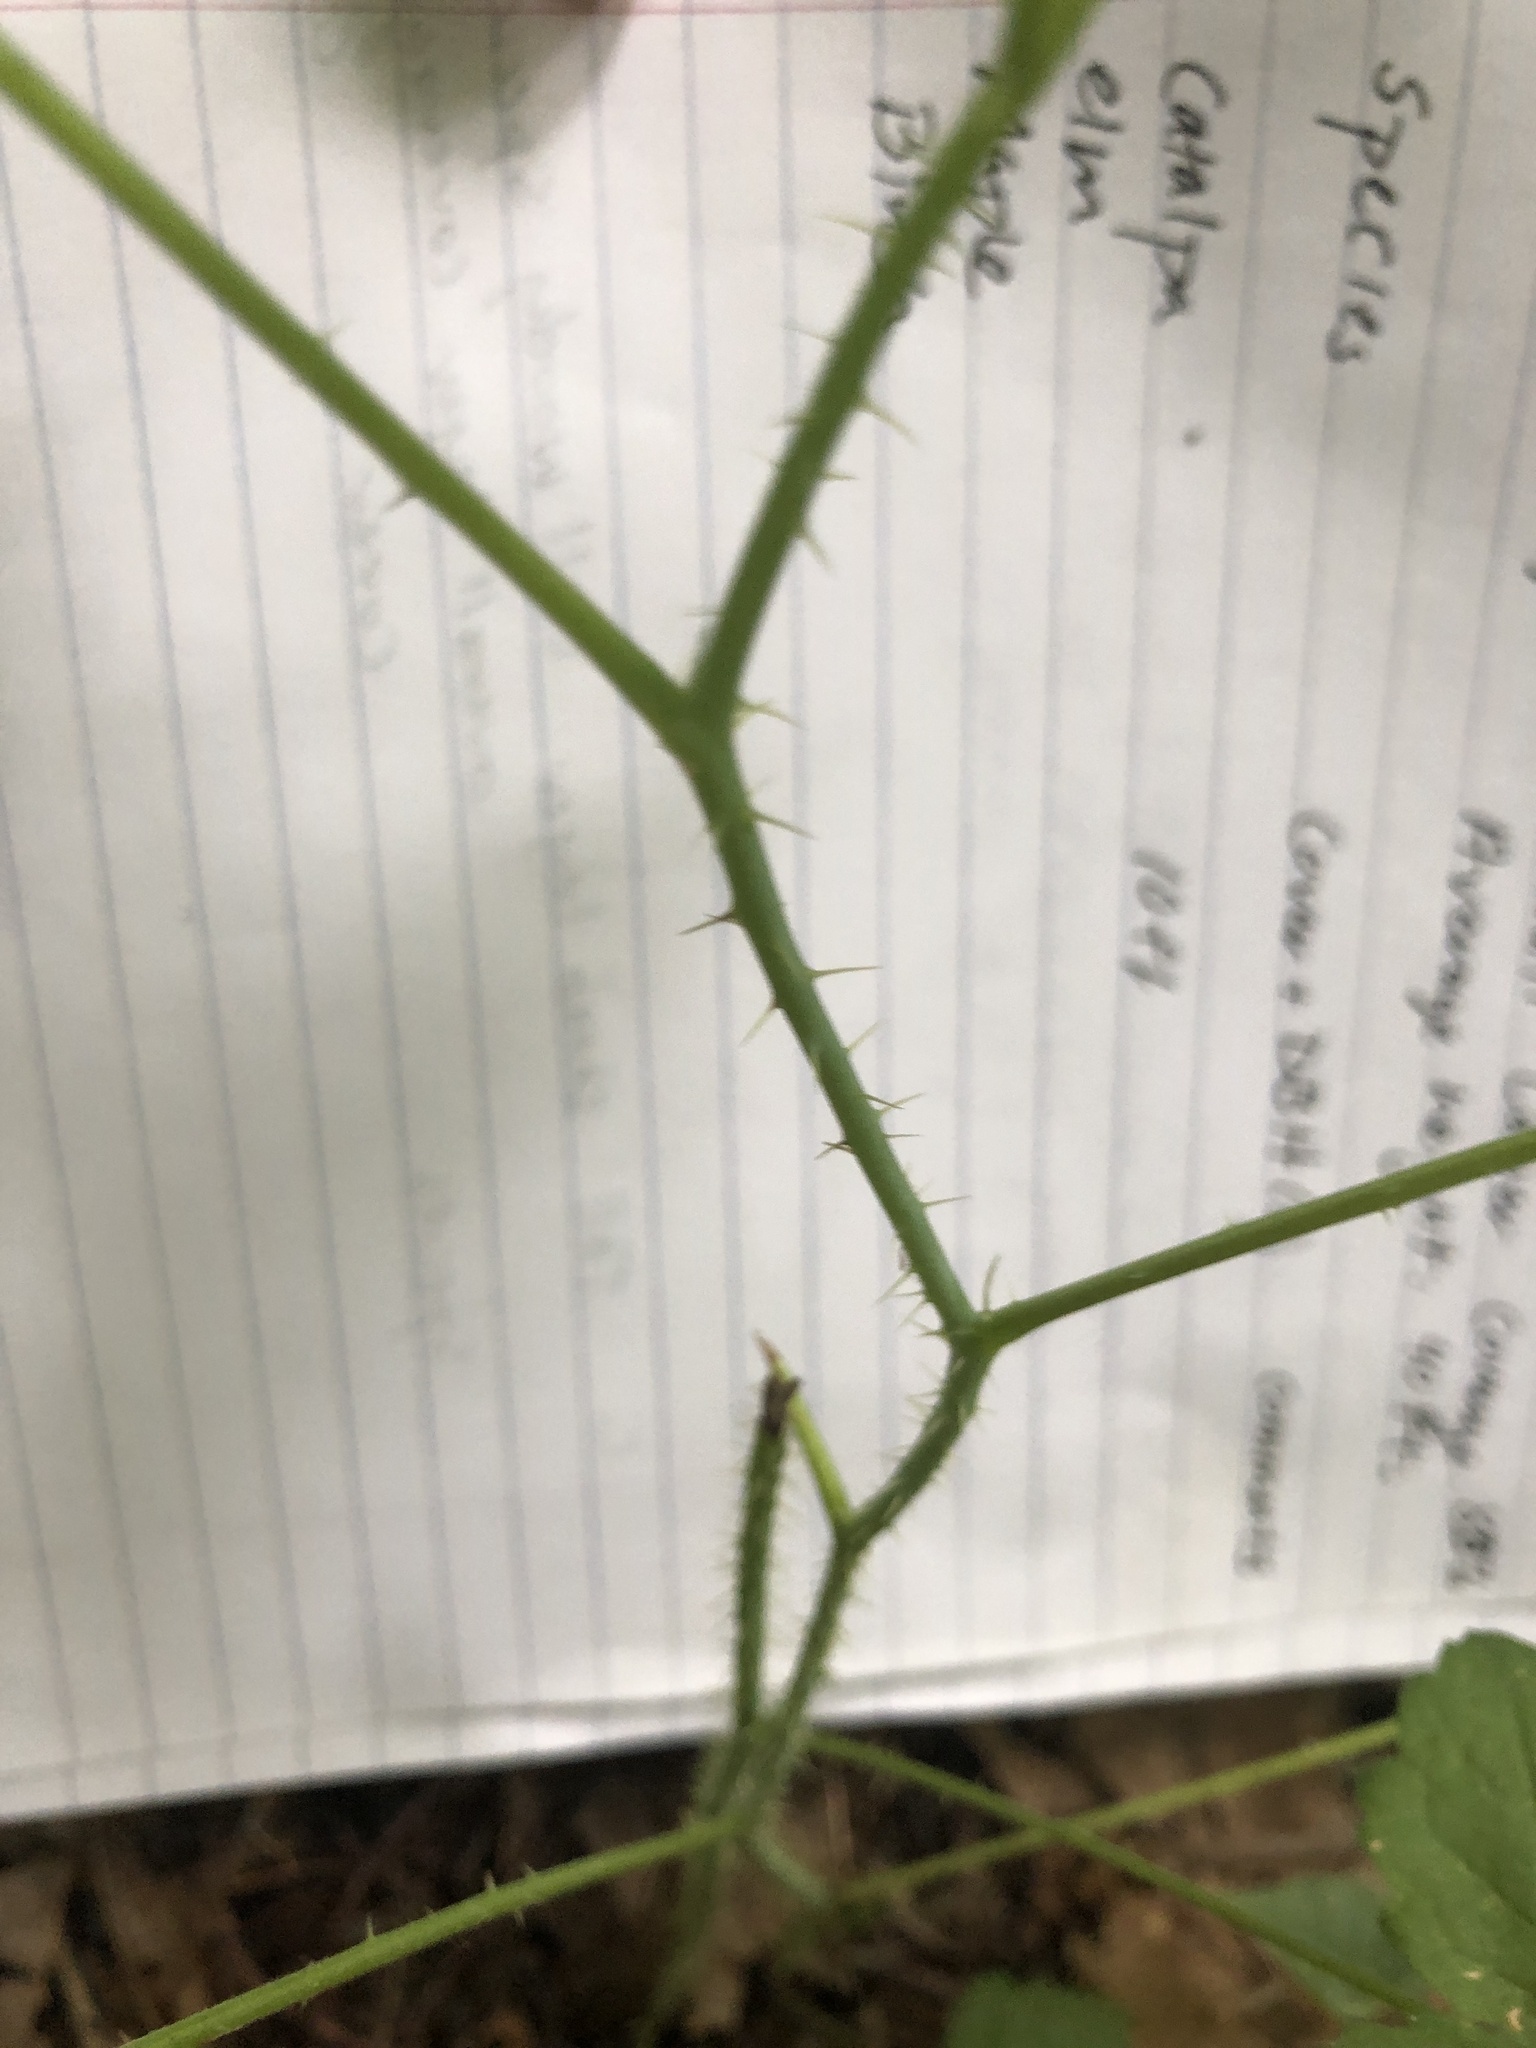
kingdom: Plantae
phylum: Tracheophyta
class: Magnoliopsida
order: Rosales
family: Rosaceae
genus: Rubus
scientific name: Rubus occidentalis
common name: Black raspberry
